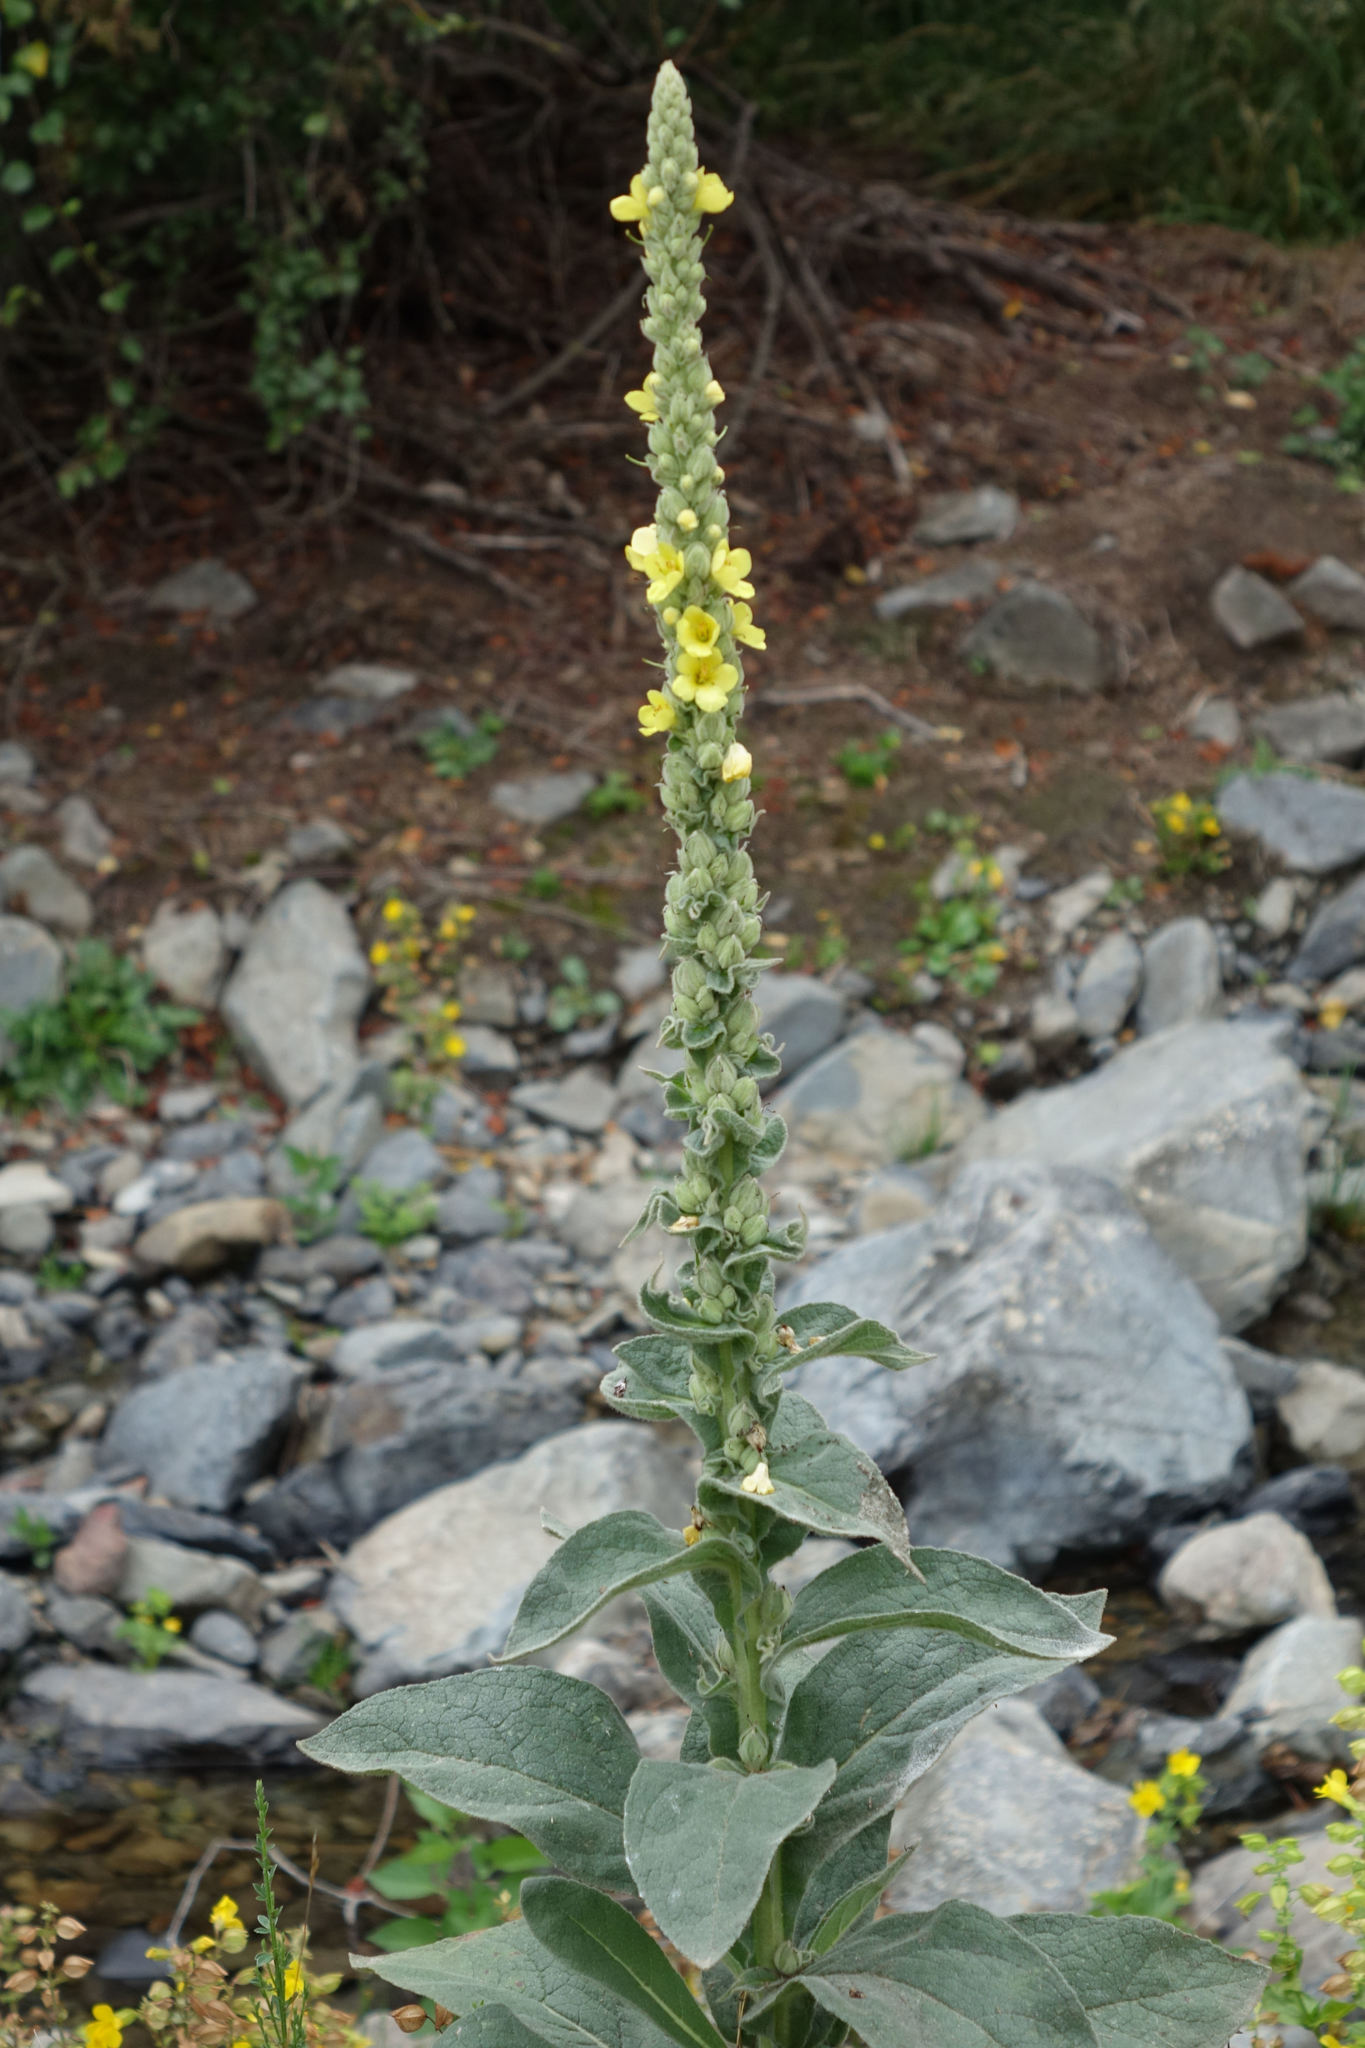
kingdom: Plantae
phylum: Tracheophyta
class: Magnoliopsida
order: Lamiales
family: Scrophulariaceae
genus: Verbascum
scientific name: Verbascum thapsus
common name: Common mullein
